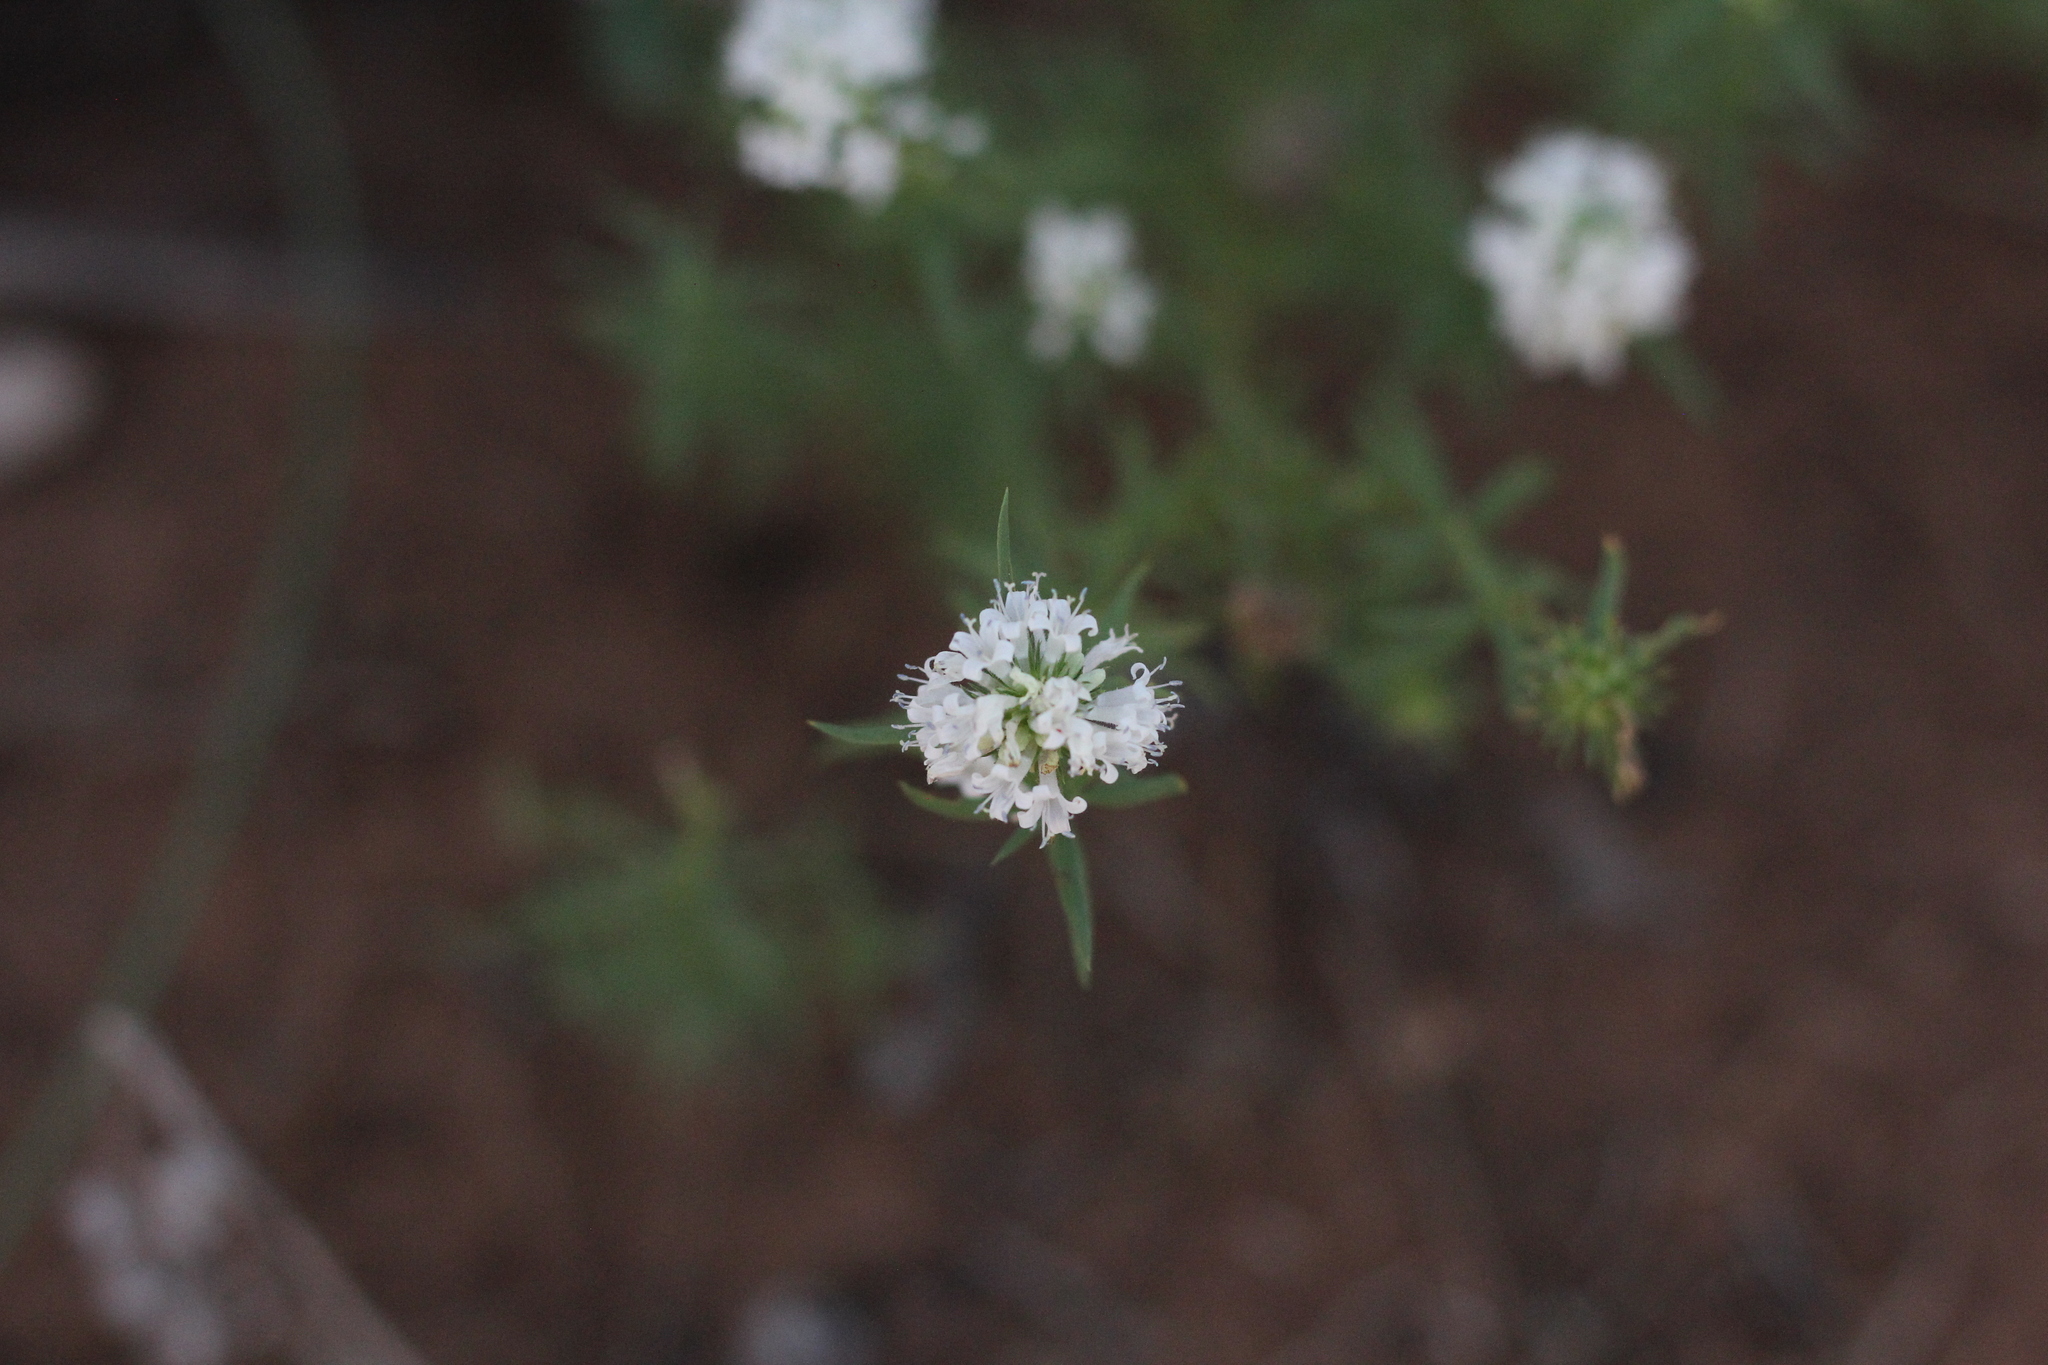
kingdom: Plantae
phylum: Tracheophyta
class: Magnoliopsida
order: Gentianales
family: Rubiaceae
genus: Staelia
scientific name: Staelia thymoides
